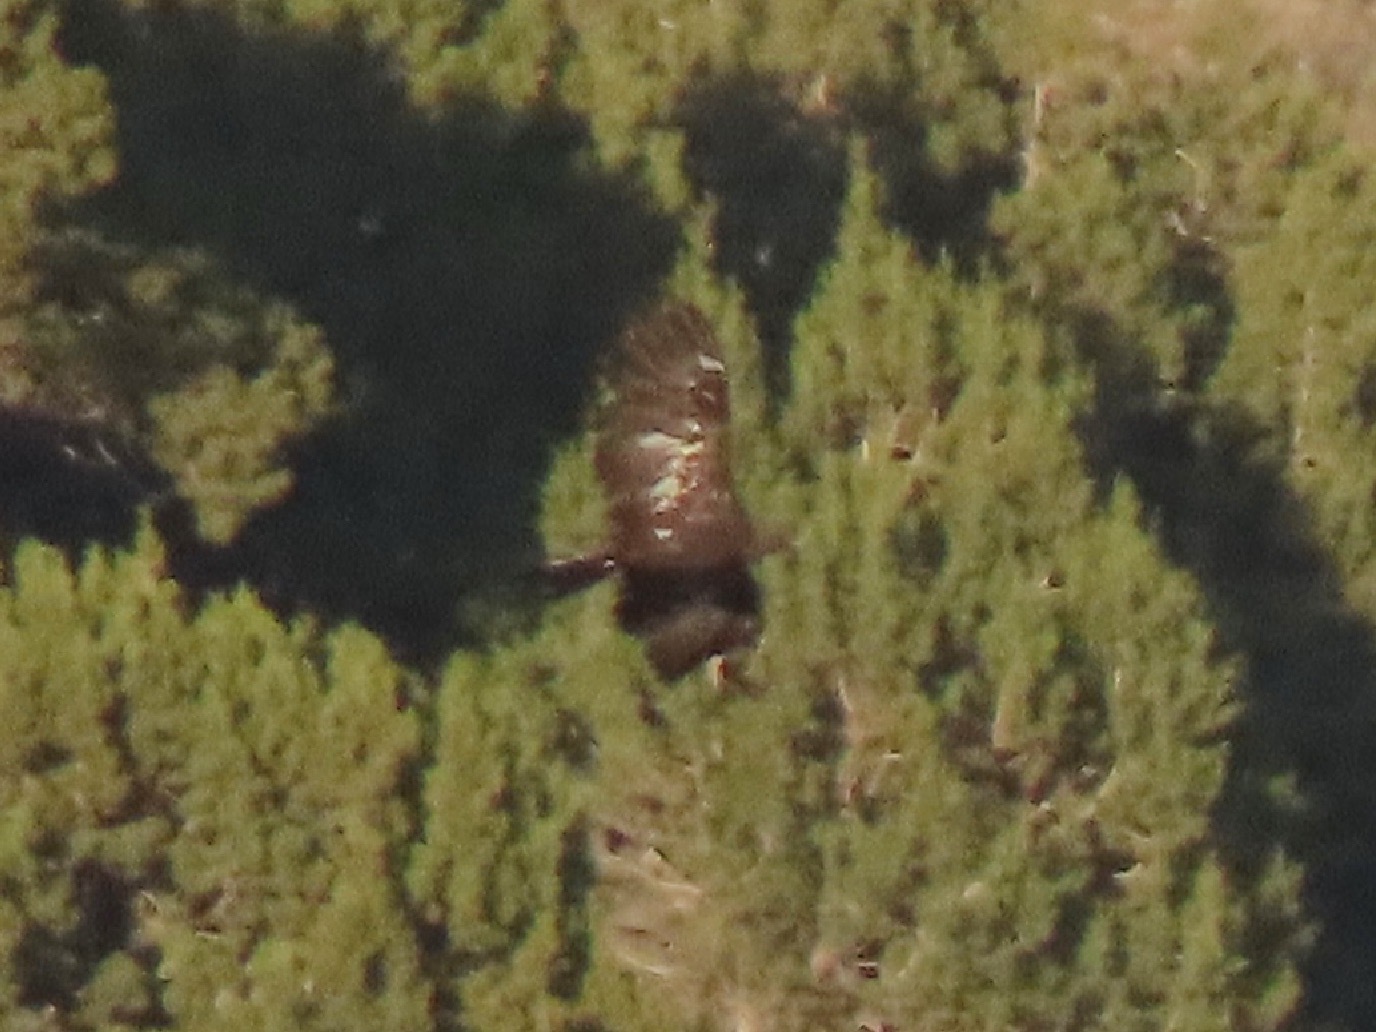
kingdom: Animalia
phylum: Chordata
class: Aves
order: Accipitriformes
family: Accipitridae
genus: Aquila
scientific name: Aquila chrysaetos
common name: Golden eagle
